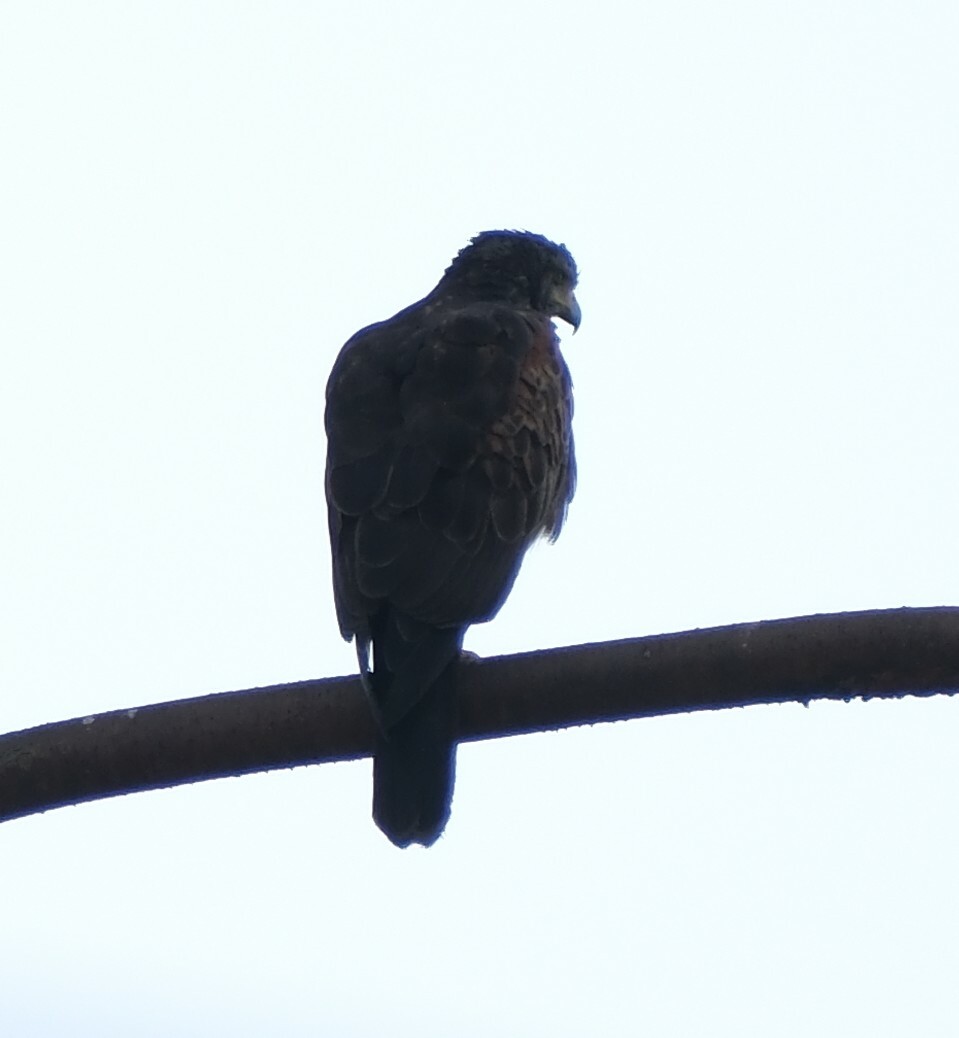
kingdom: Animalia
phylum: Chordata
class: Aves
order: Accipitriformes
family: Accipitridae
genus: Parabuteo
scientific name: Parabuteo unicinctus
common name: Harris's hawk
